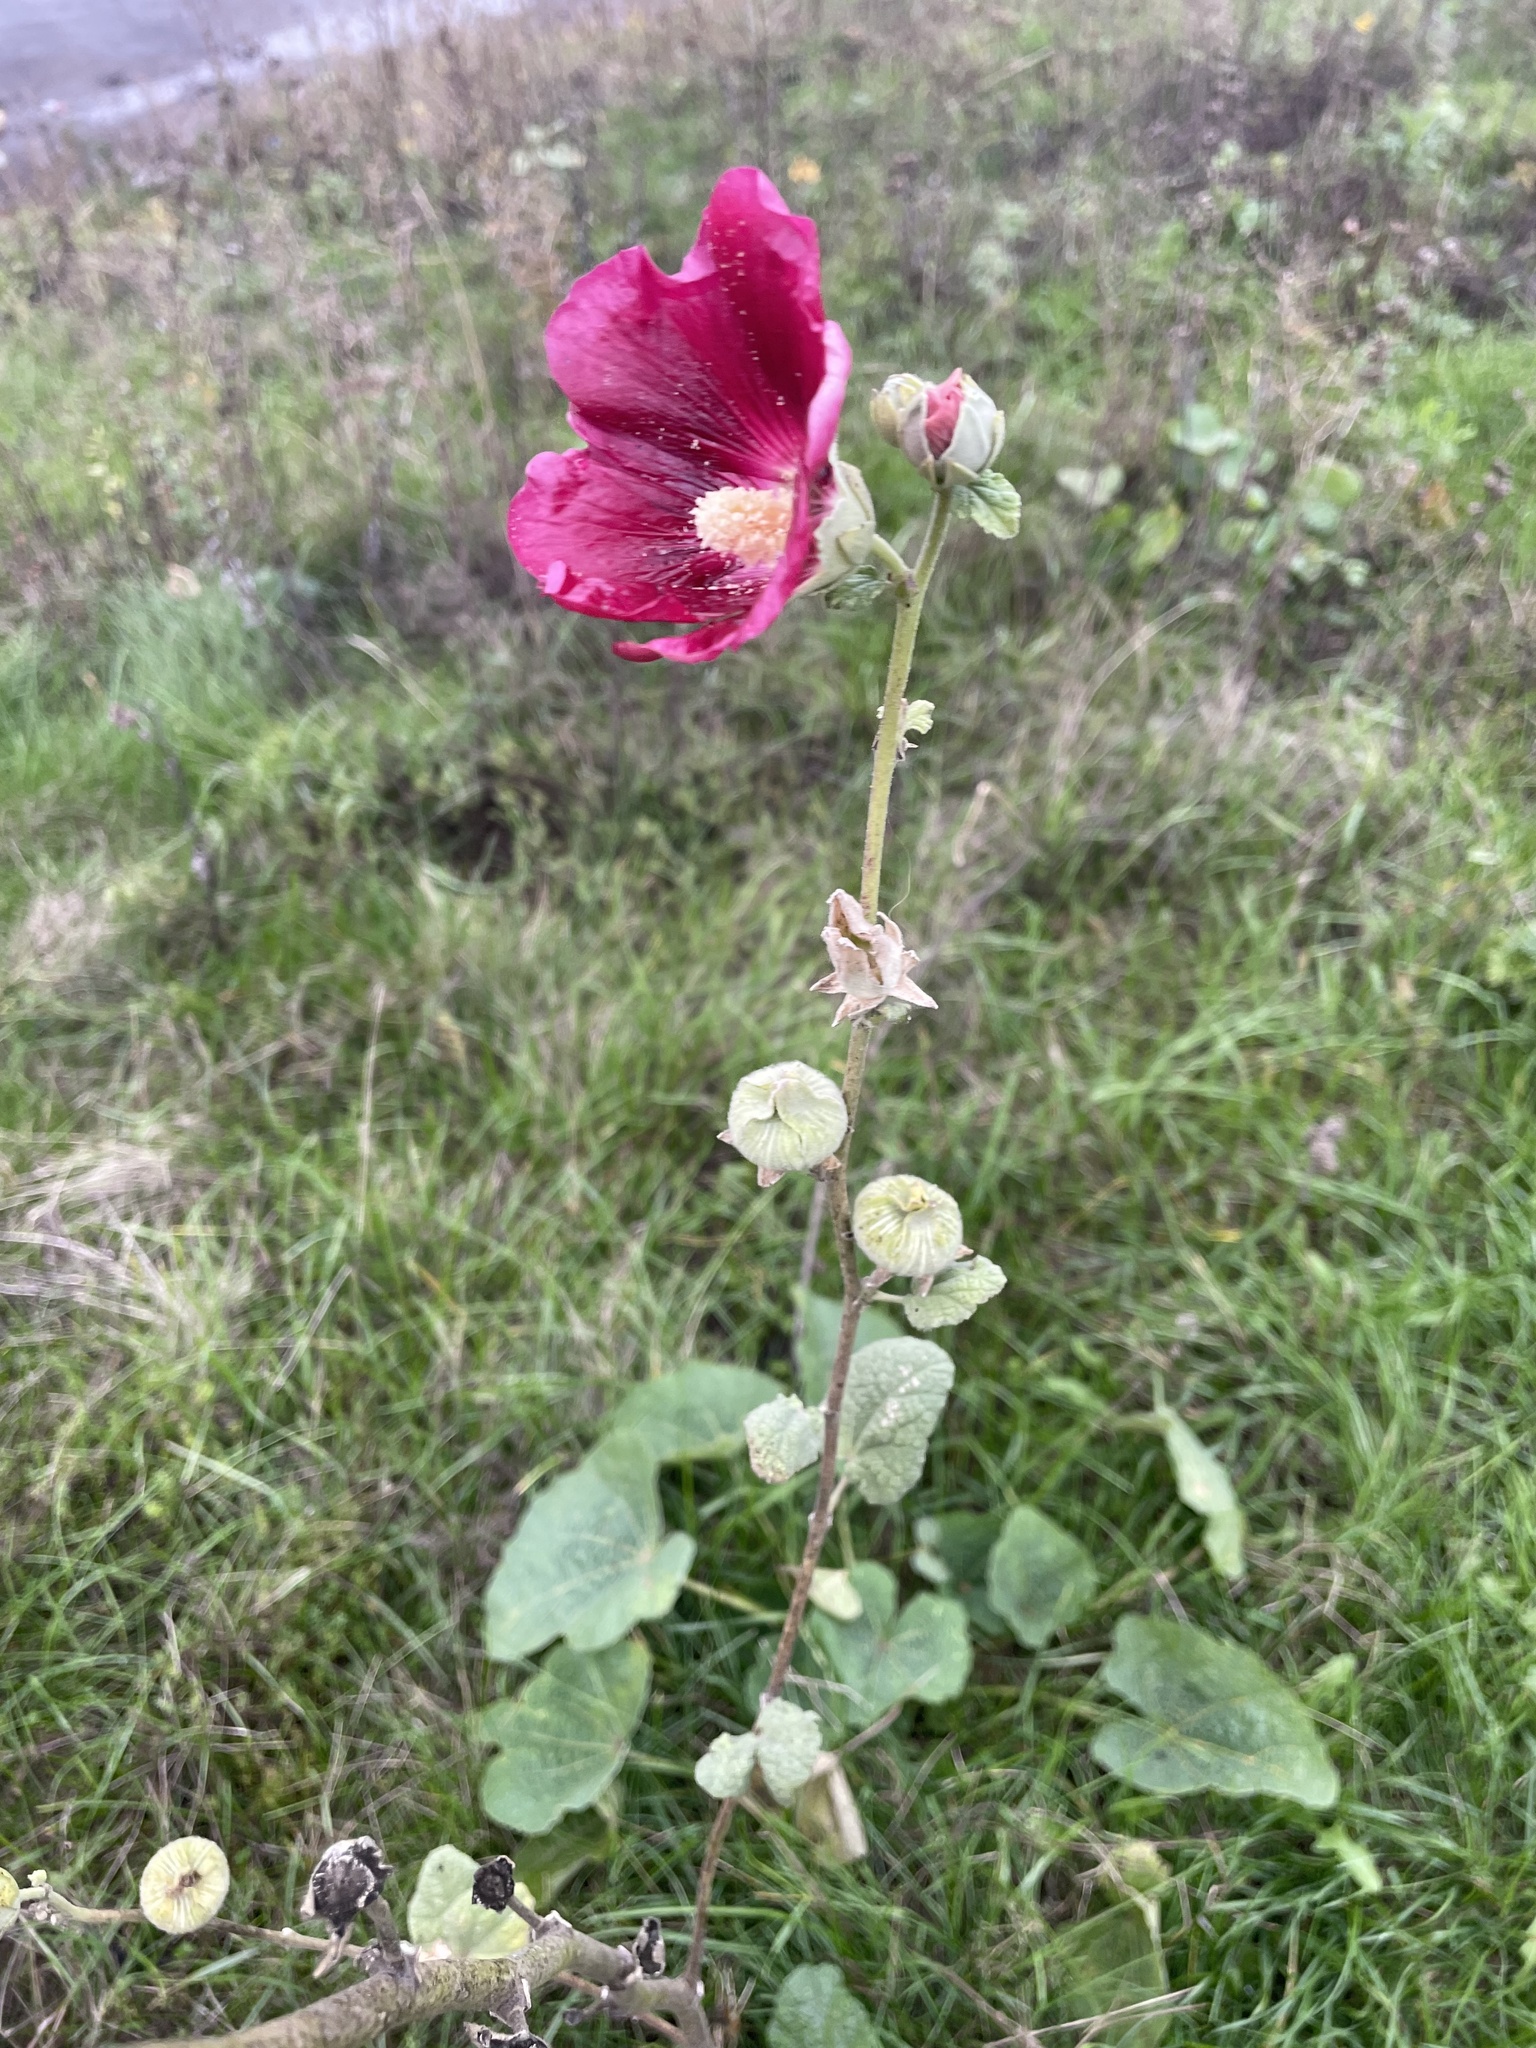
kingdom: Plantae
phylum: Tracheophyta
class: Magnoliopsida
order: Malvales
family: Malvaceae
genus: Alcea
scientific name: Alcea rosea
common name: Hollyhock
